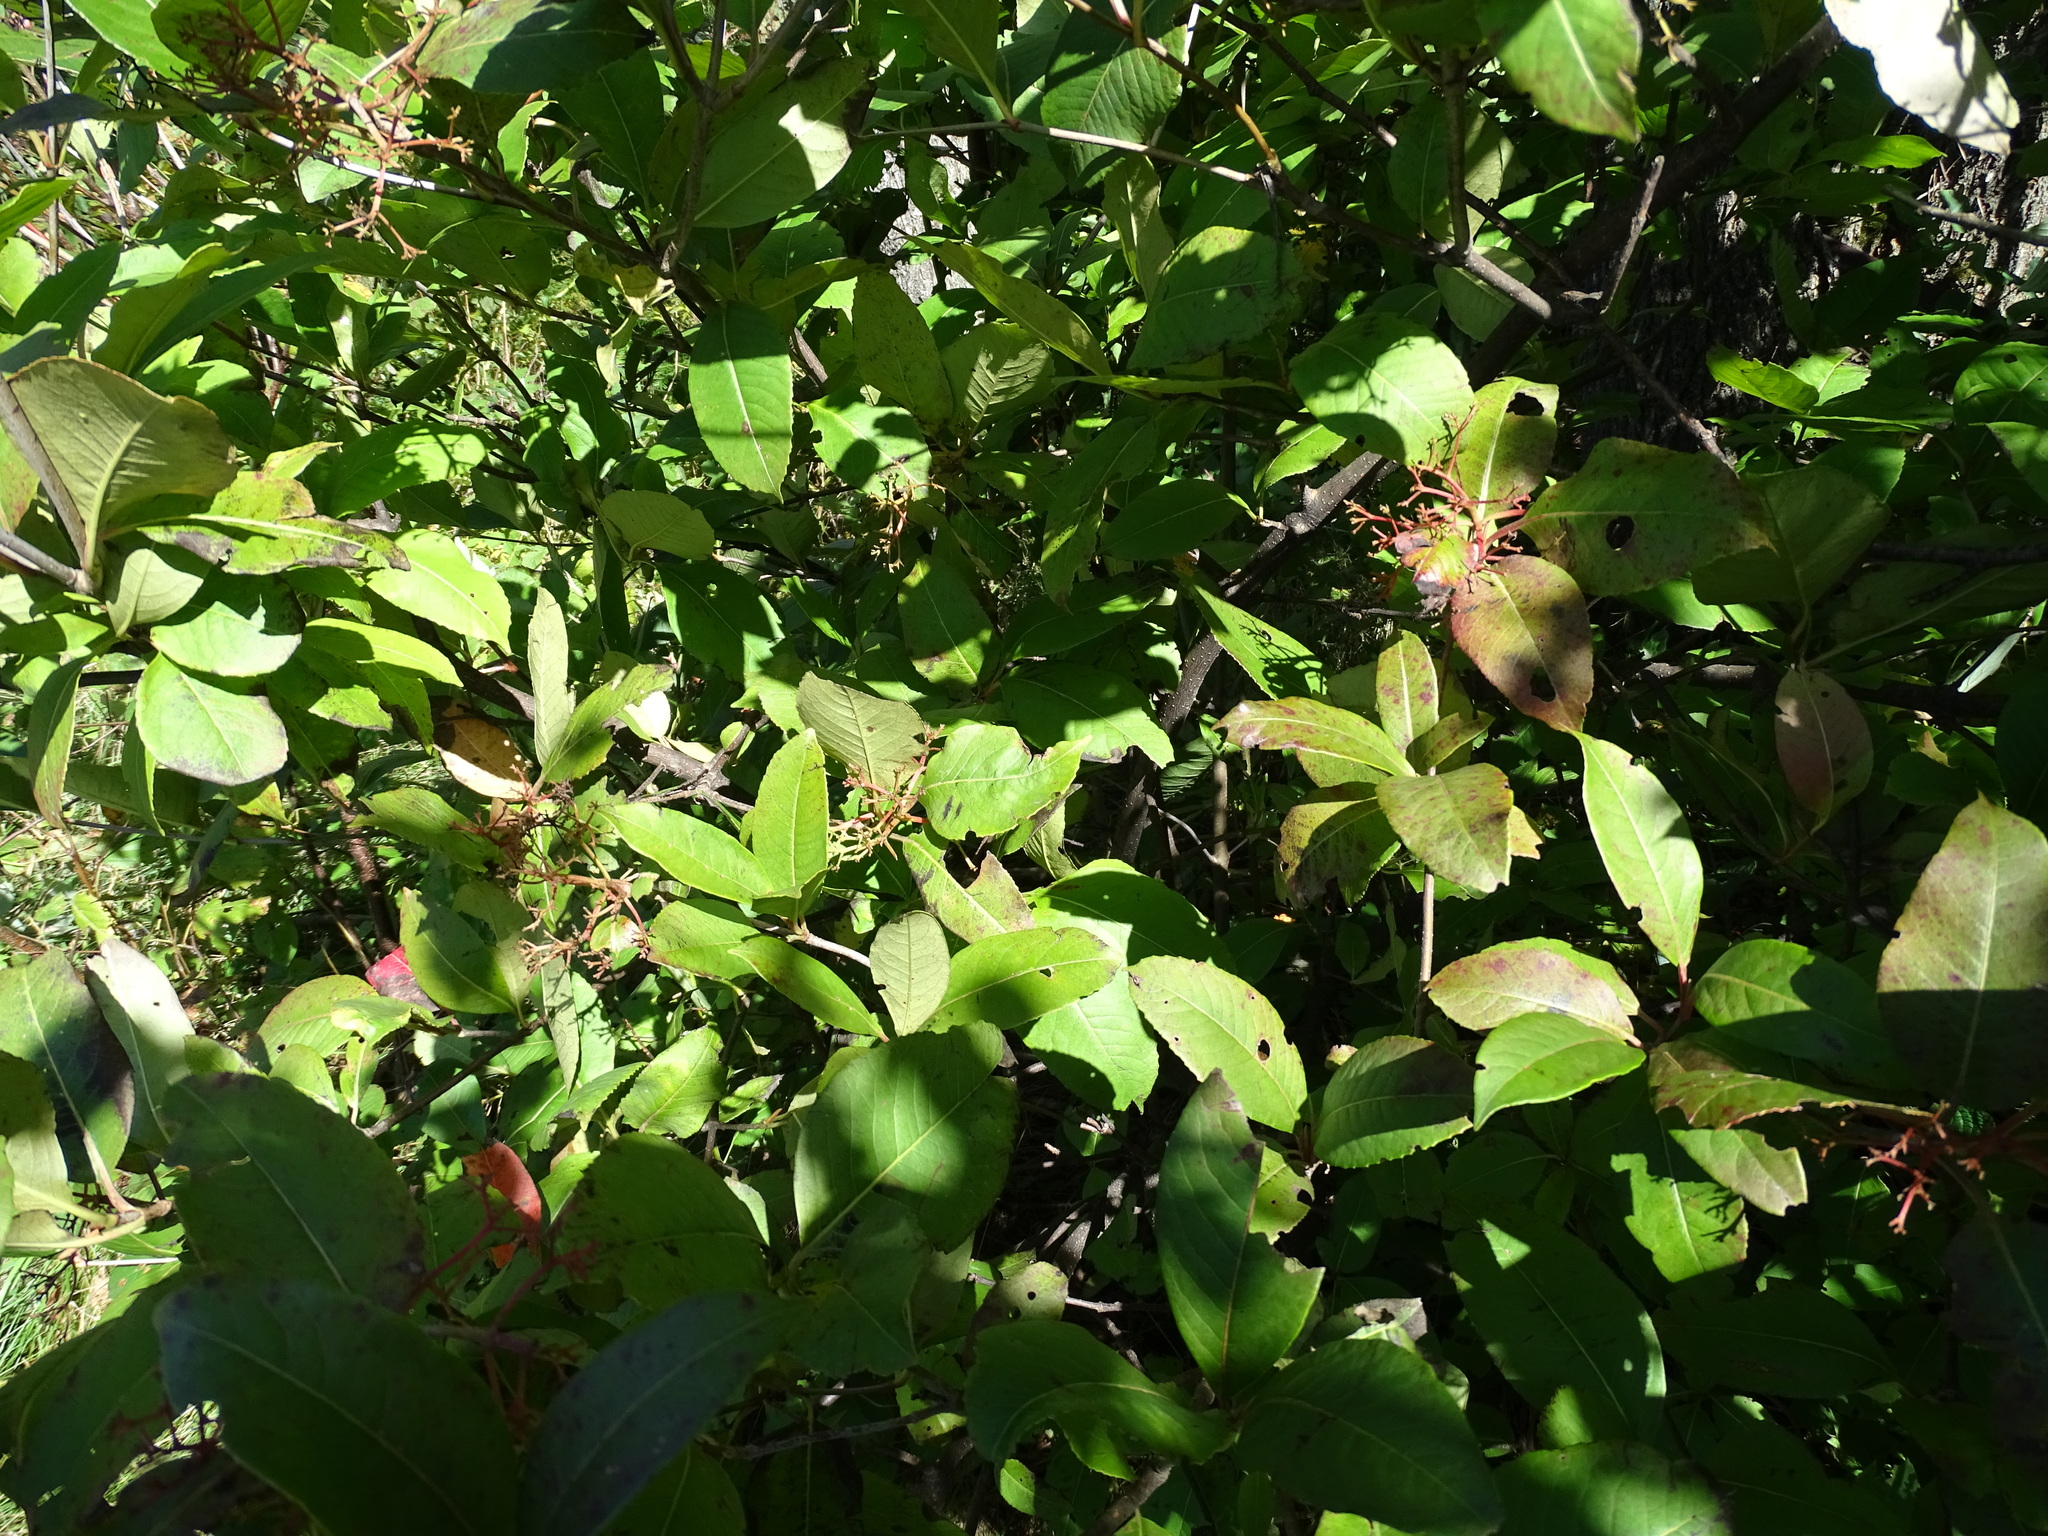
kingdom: Plantae
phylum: Tracheophyta
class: Magnoliopsida
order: Dipsacales
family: Viburnaceae
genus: Viburnum
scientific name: Viburnum cassinoides
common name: Swamp haw
